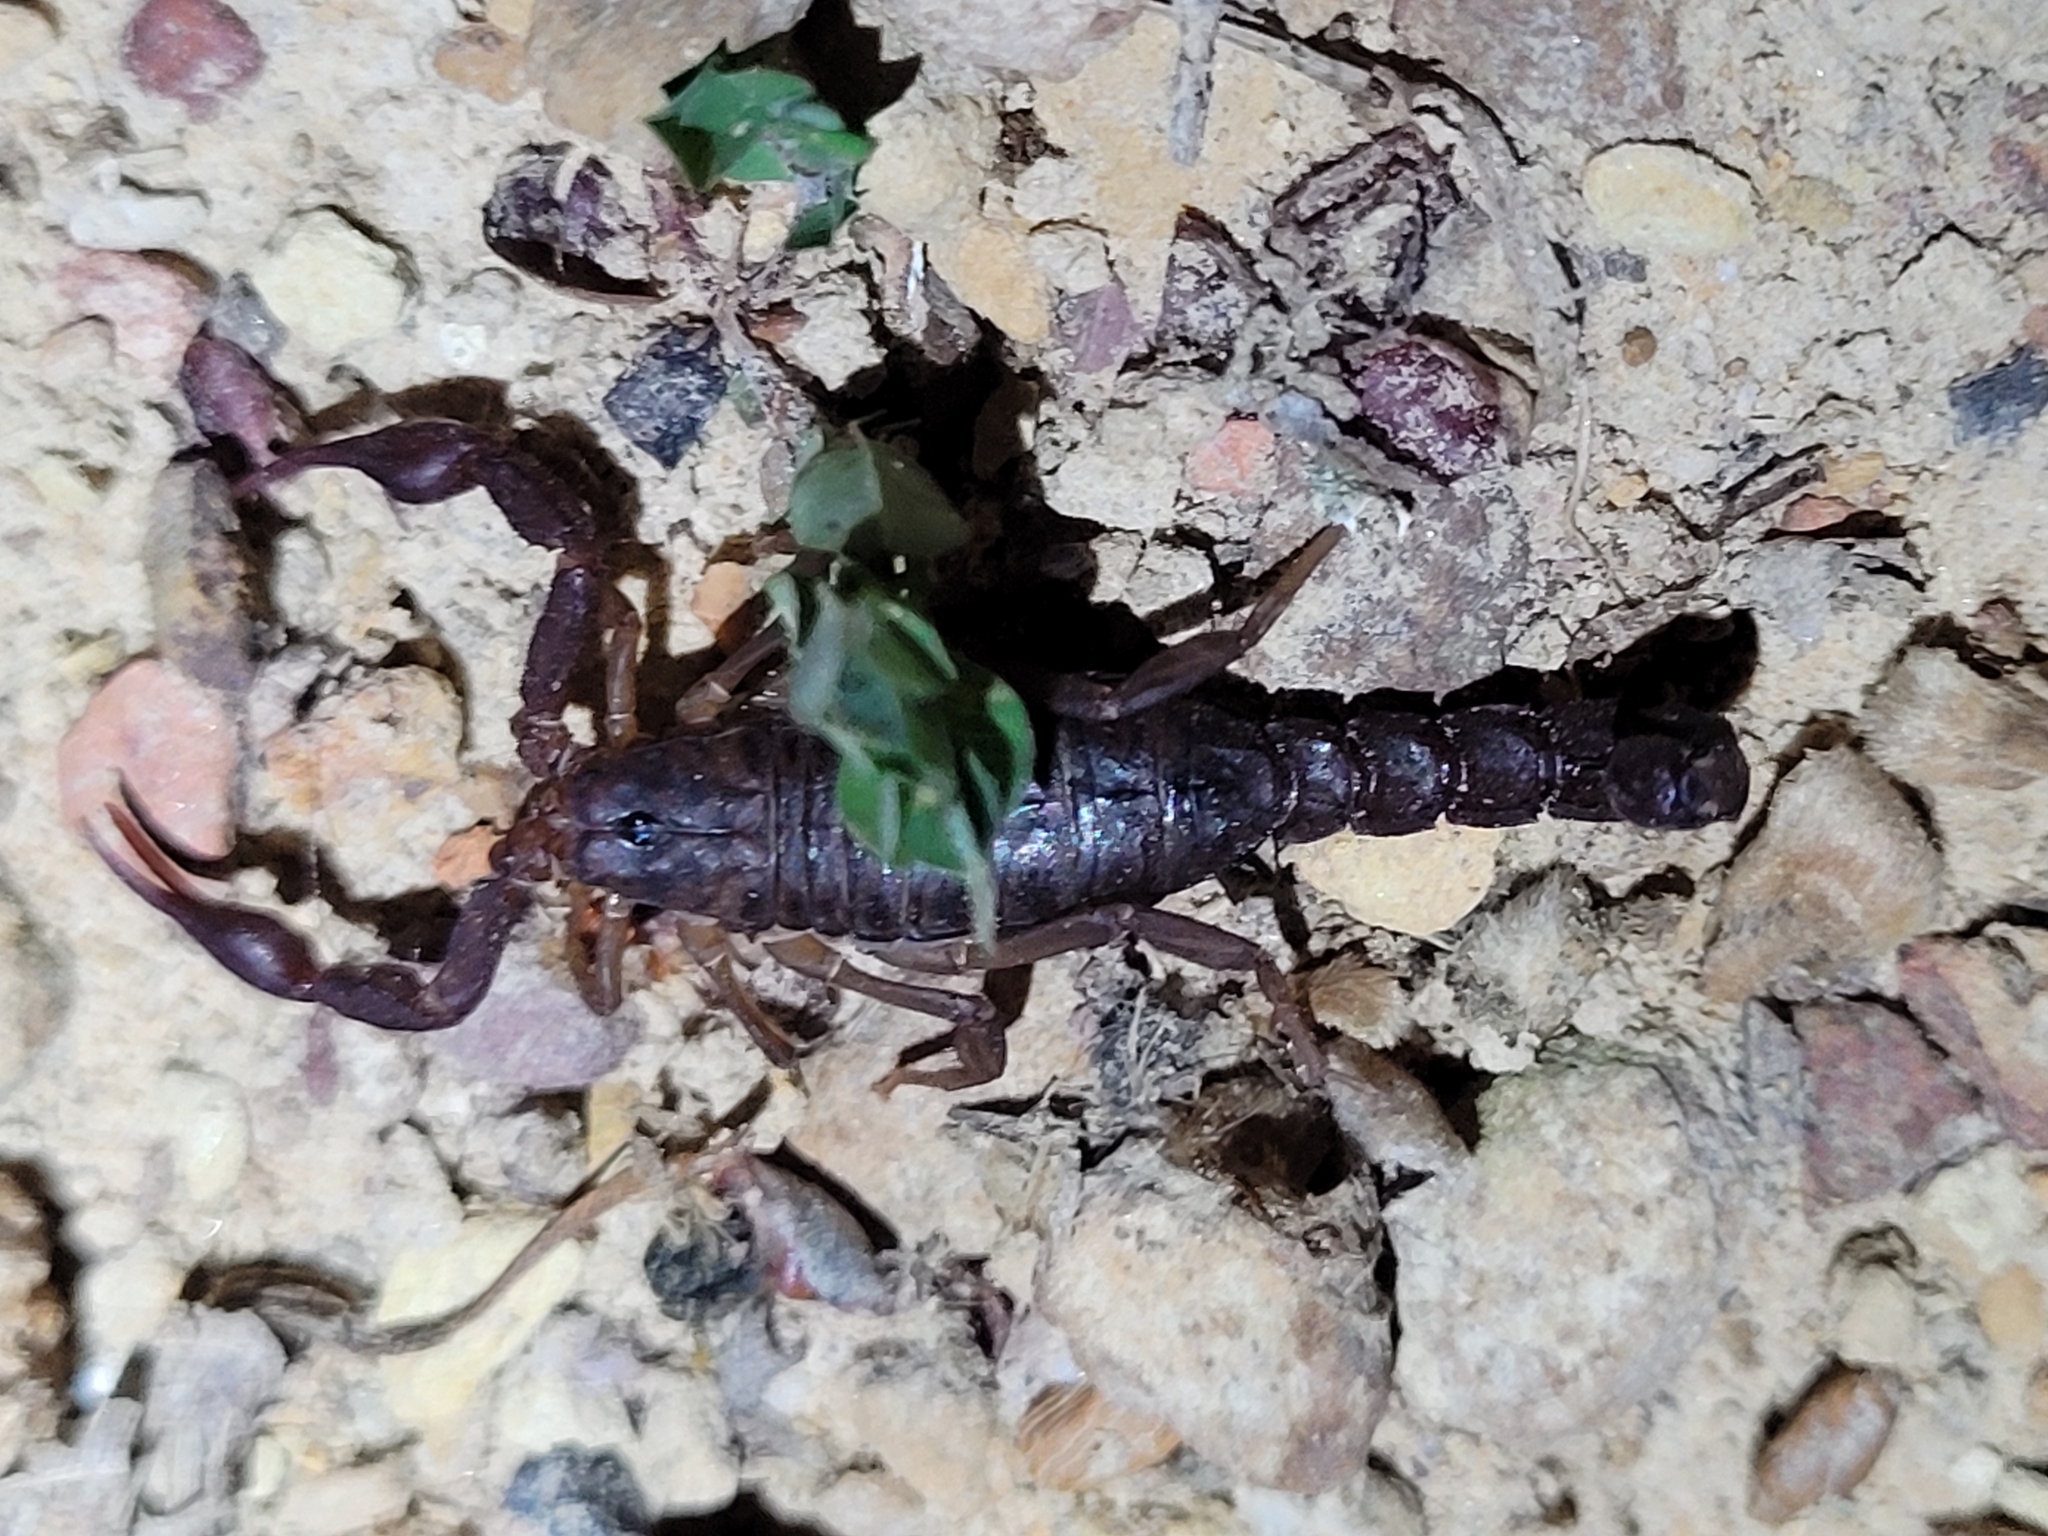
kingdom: Animalia
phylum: Arthropoda
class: Arachnida
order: Scorpiones
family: Vaejovidae
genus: Vaejovis
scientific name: Vaejovis carolinianus
